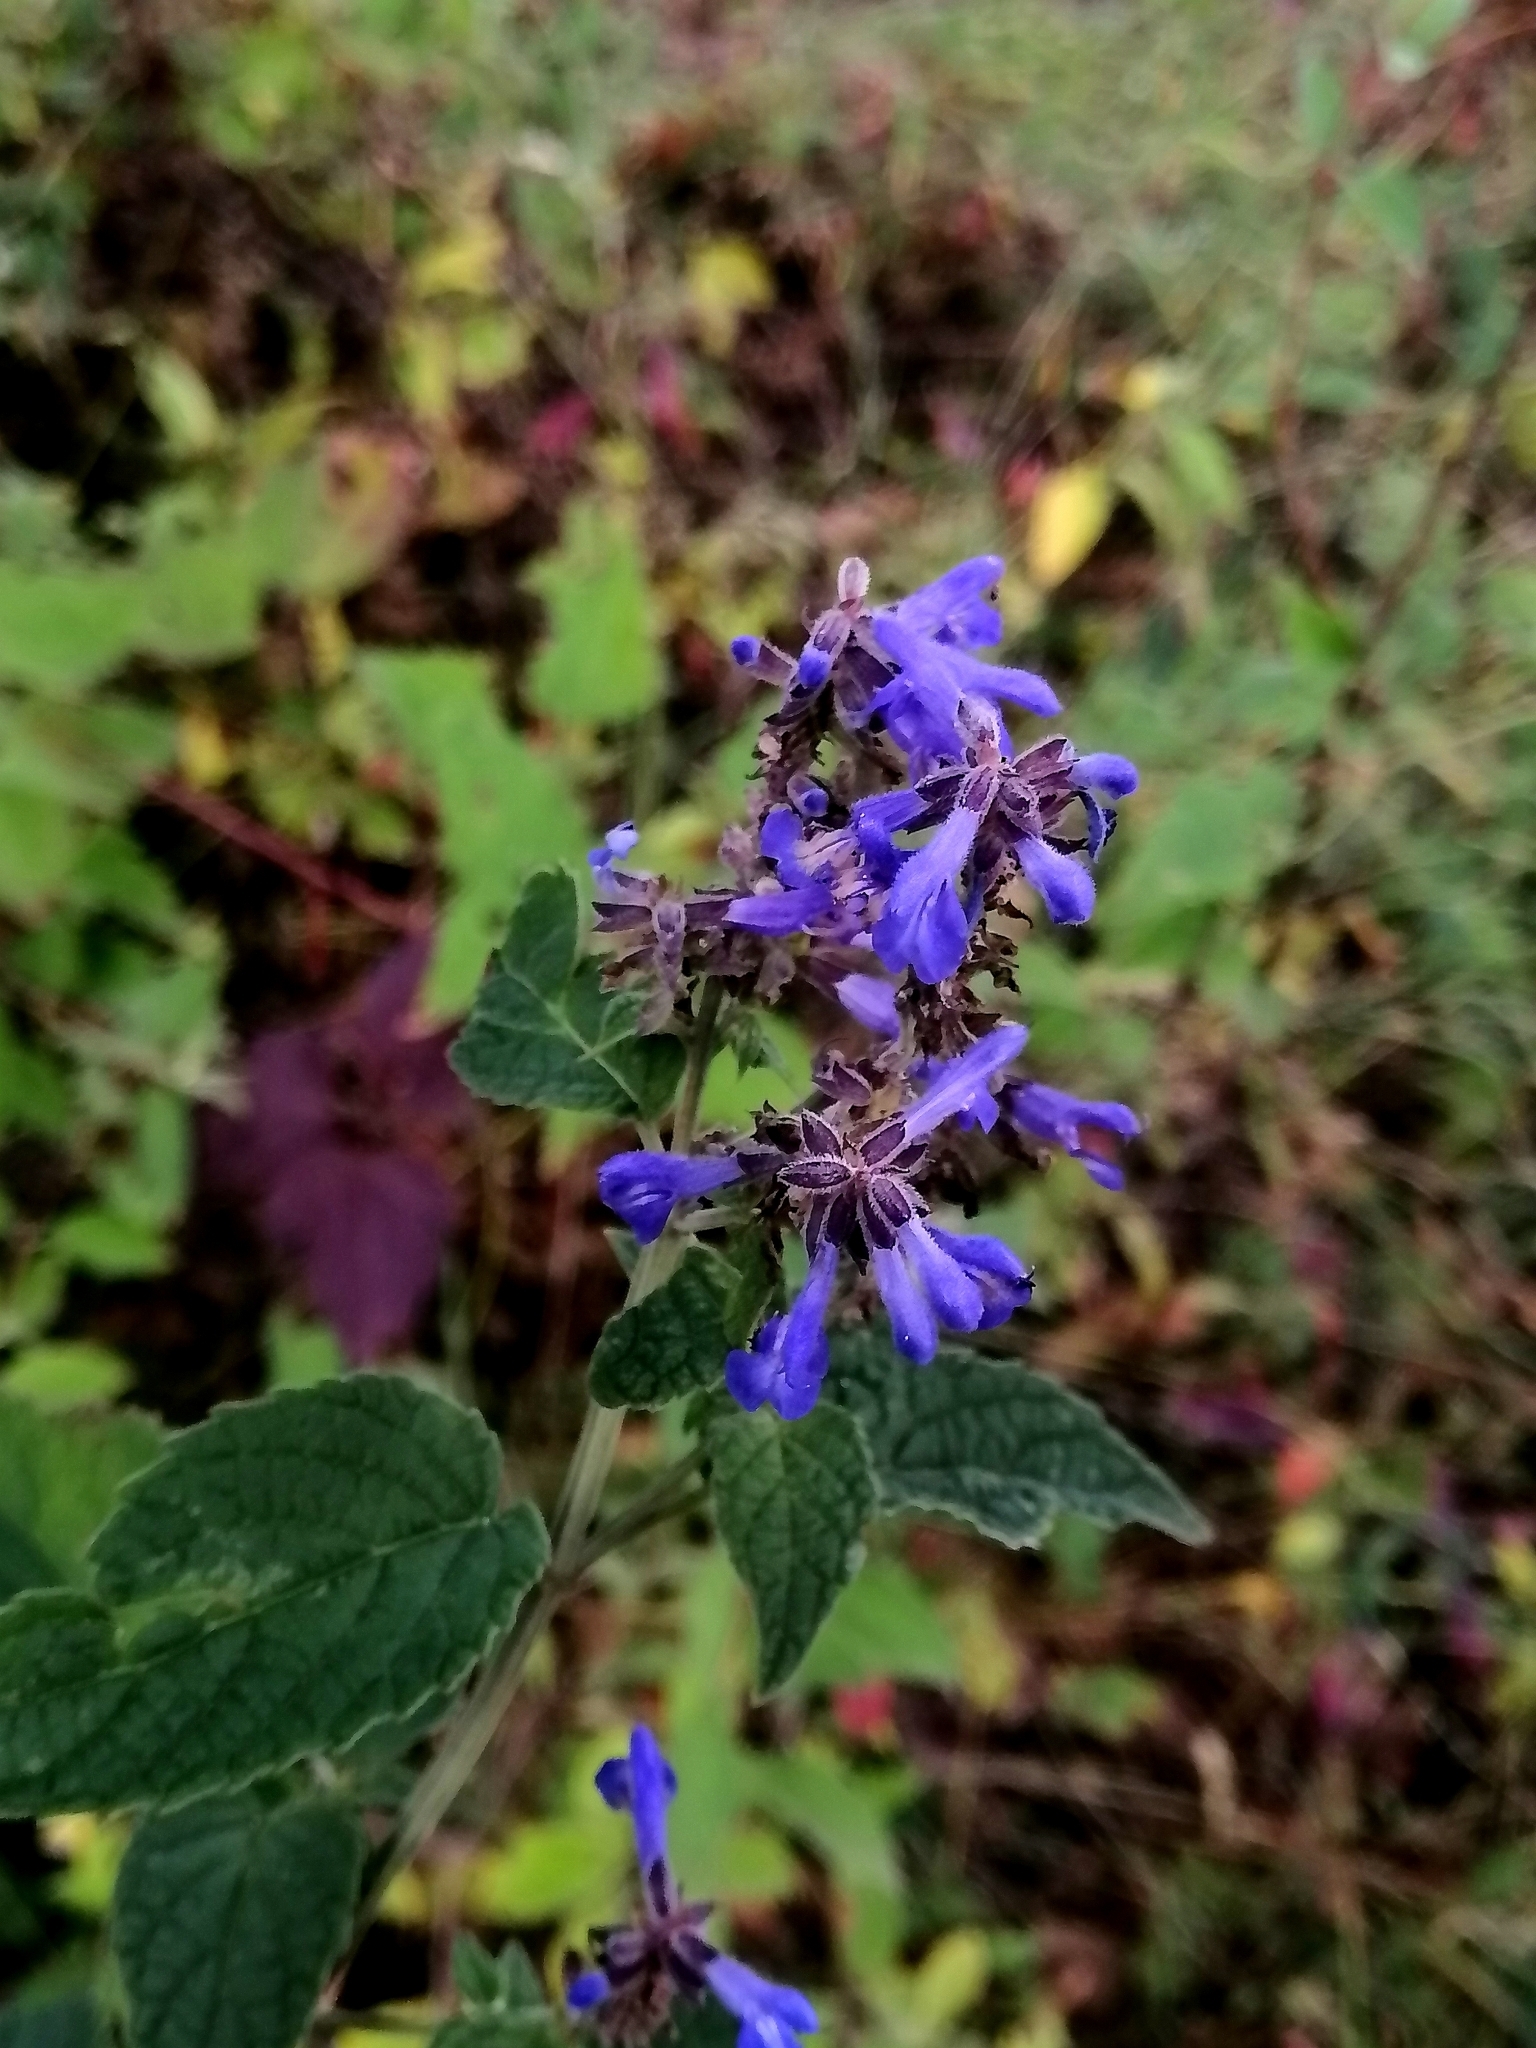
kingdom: Plantae
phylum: Tracheophyta
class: Magnoliopsida
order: Lamiales
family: Lamiaceae
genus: Salvia
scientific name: Salvia polystachia
